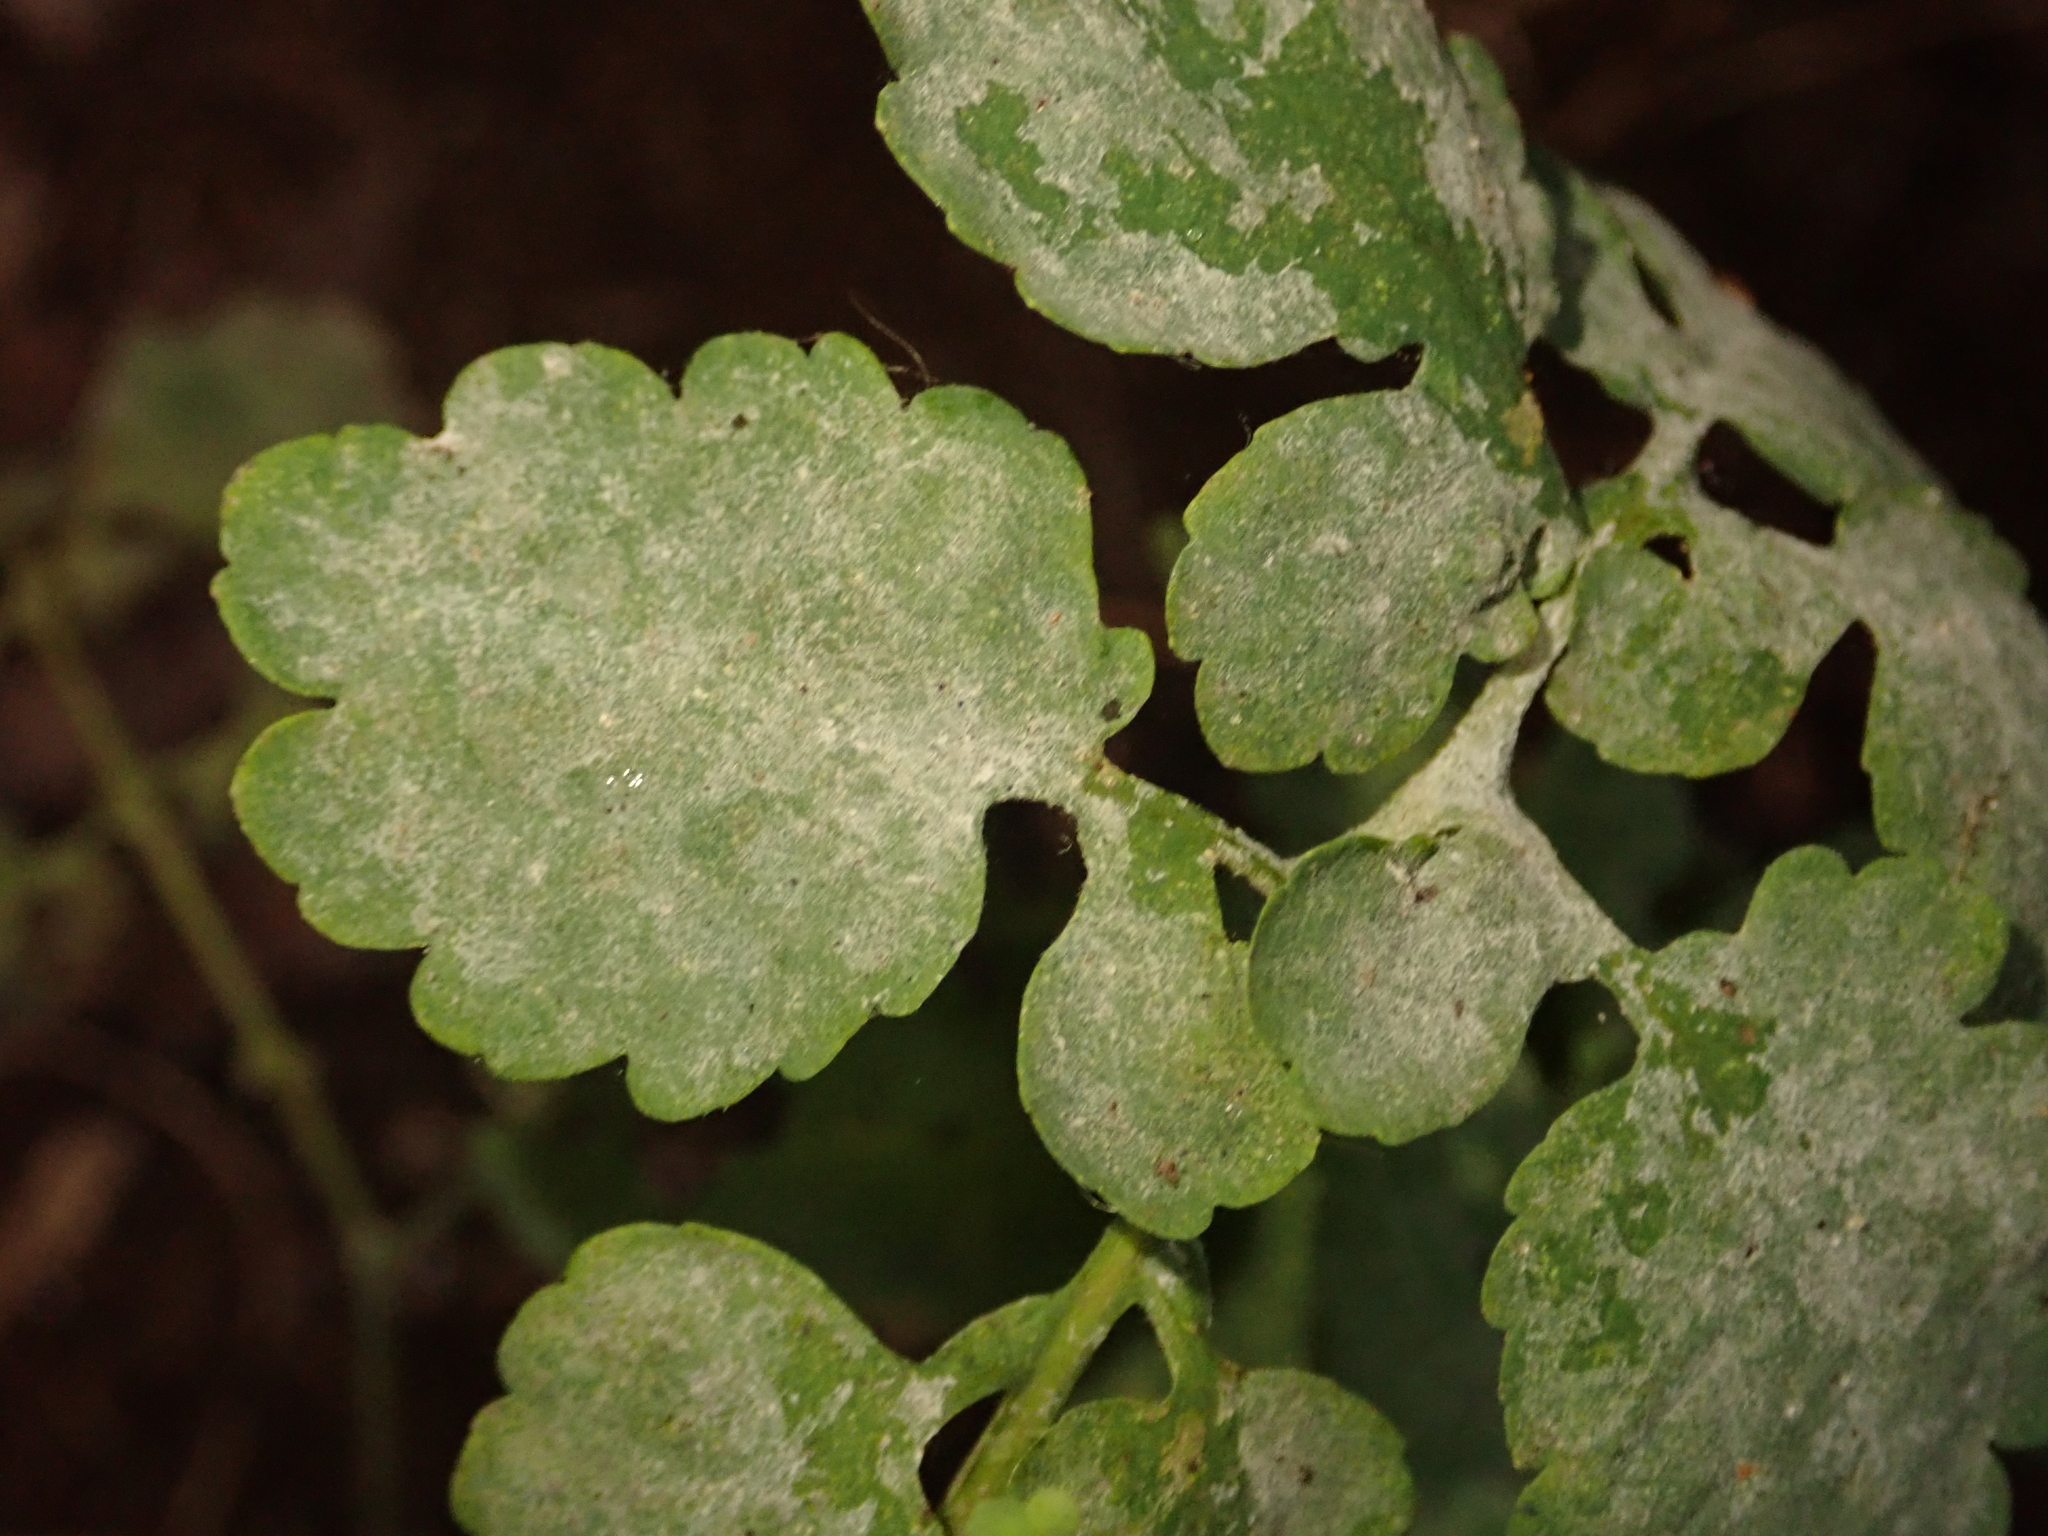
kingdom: Fungi
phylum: Ascomycota
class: Leotiomycetes
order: Helotiales
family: Erysiphaceae
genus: Erysiphe
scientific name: Erysiphe macleayae
